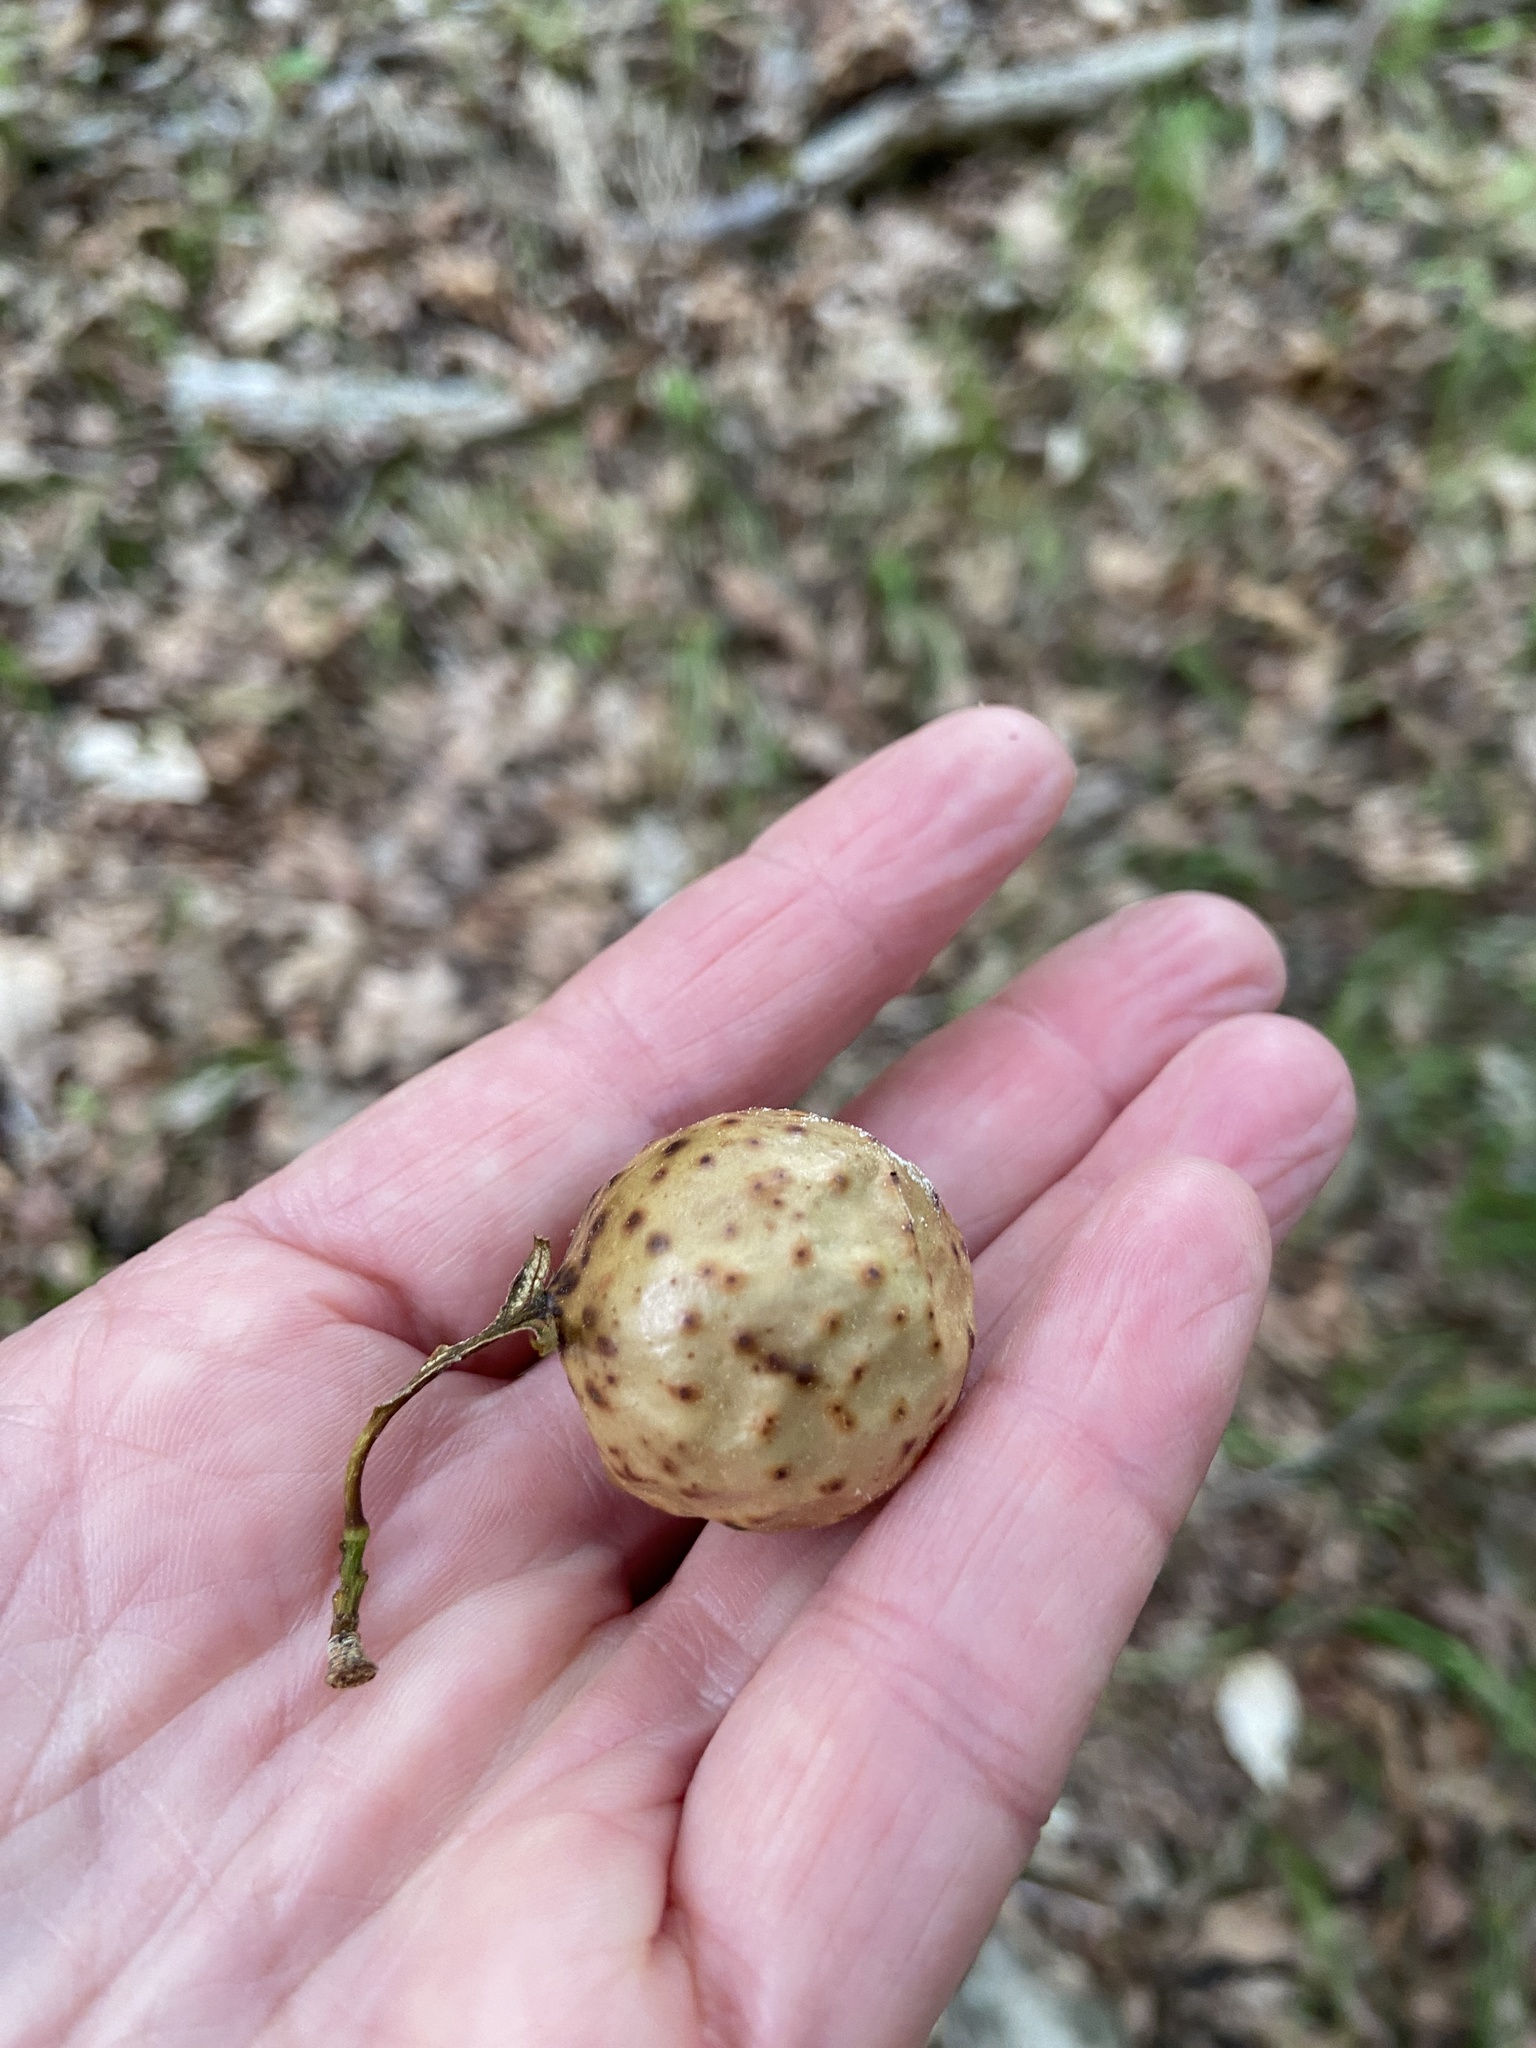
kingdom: Animalia
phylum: Arthropoda
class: Insecta
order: Hymenoptera
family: Cynipidae
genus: Amphibolips
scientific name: Amphibolips
